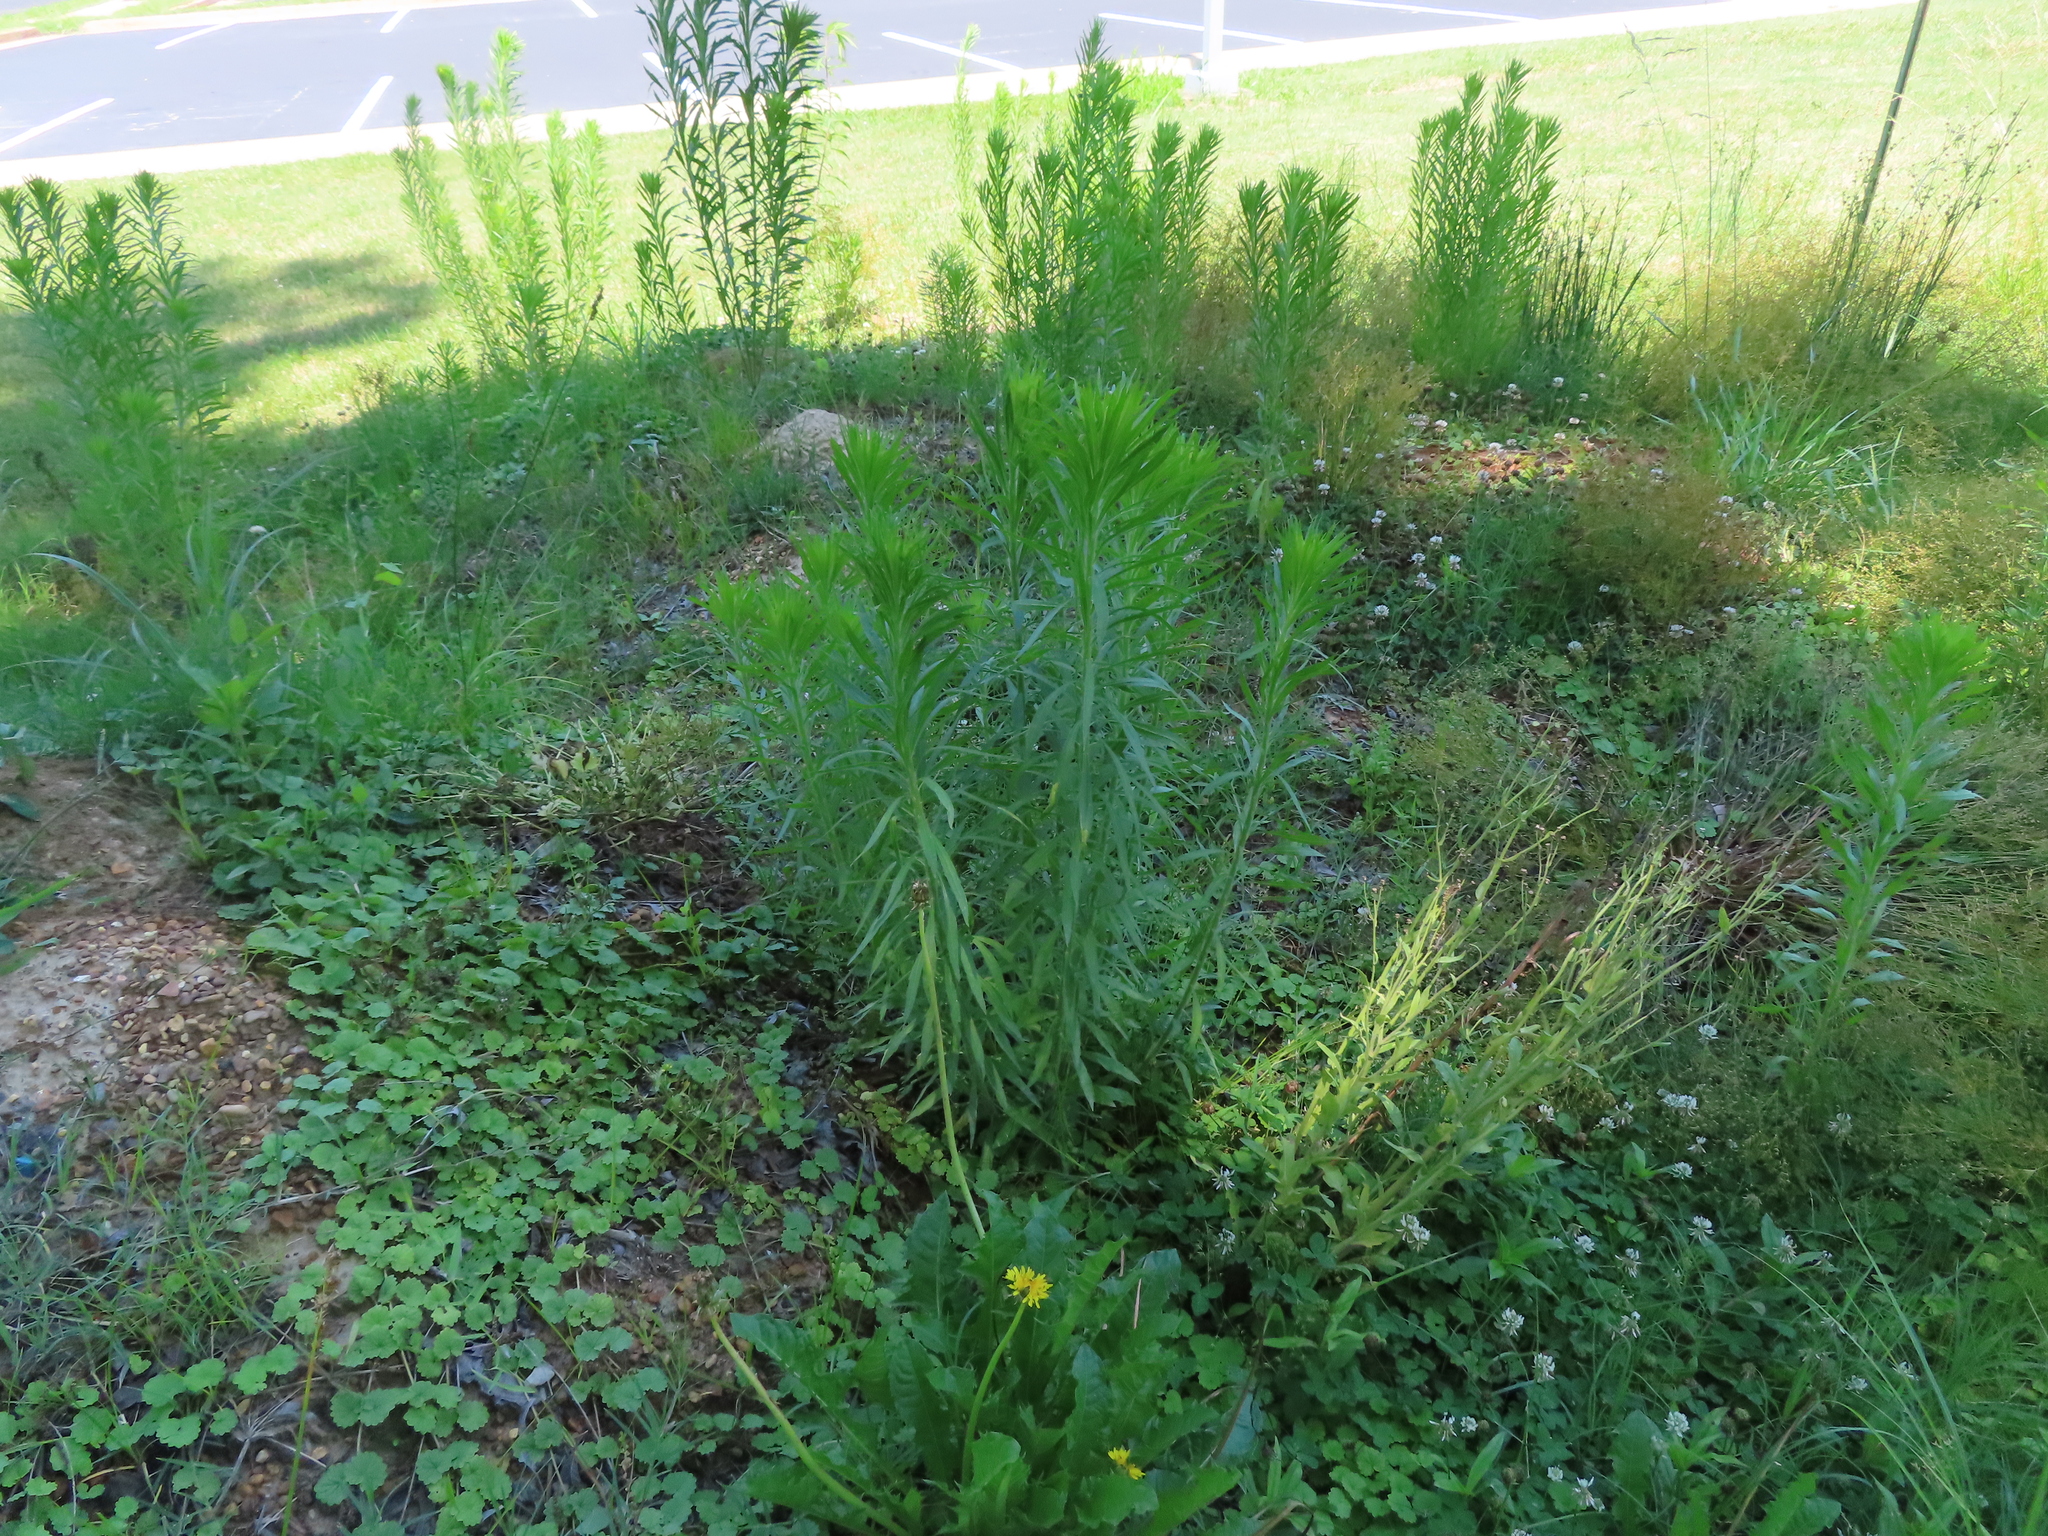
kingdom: Plantae
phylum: Tracheophyta
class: Magnoliopsida
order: Asterales
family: Asteraceae
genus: Erigeron
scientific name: Erigeron canadensis
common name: Canadian fleabane
